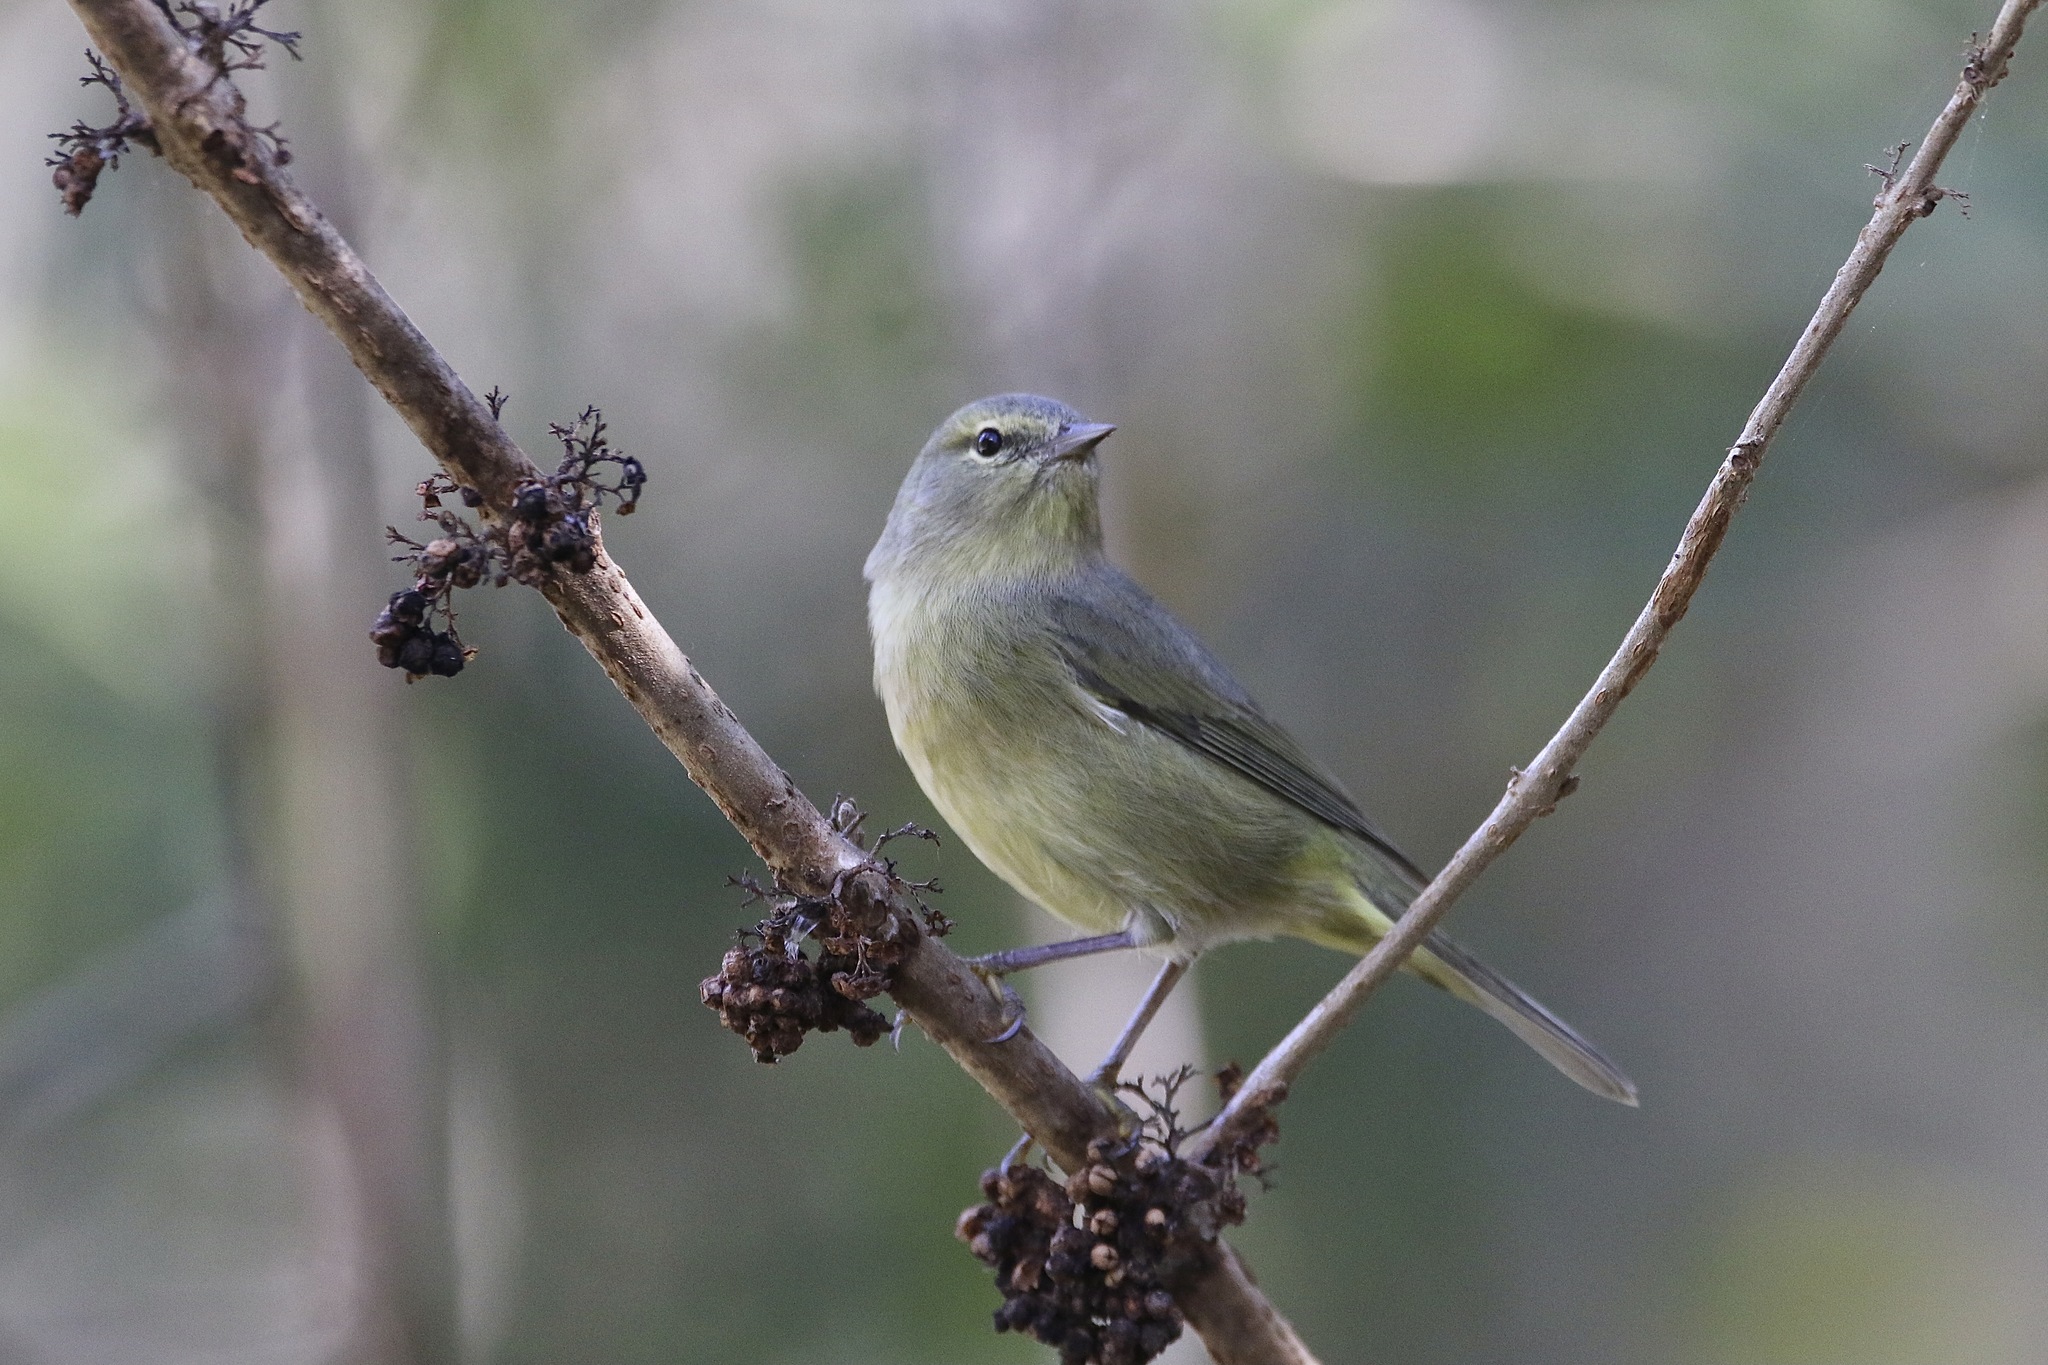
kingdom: Animalia
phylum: Chordata
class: Aves
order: Passeriformes
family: Parulidae
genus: Leiothlypis
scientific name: Leiothlypis celata
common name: Orange-crowned warbler
